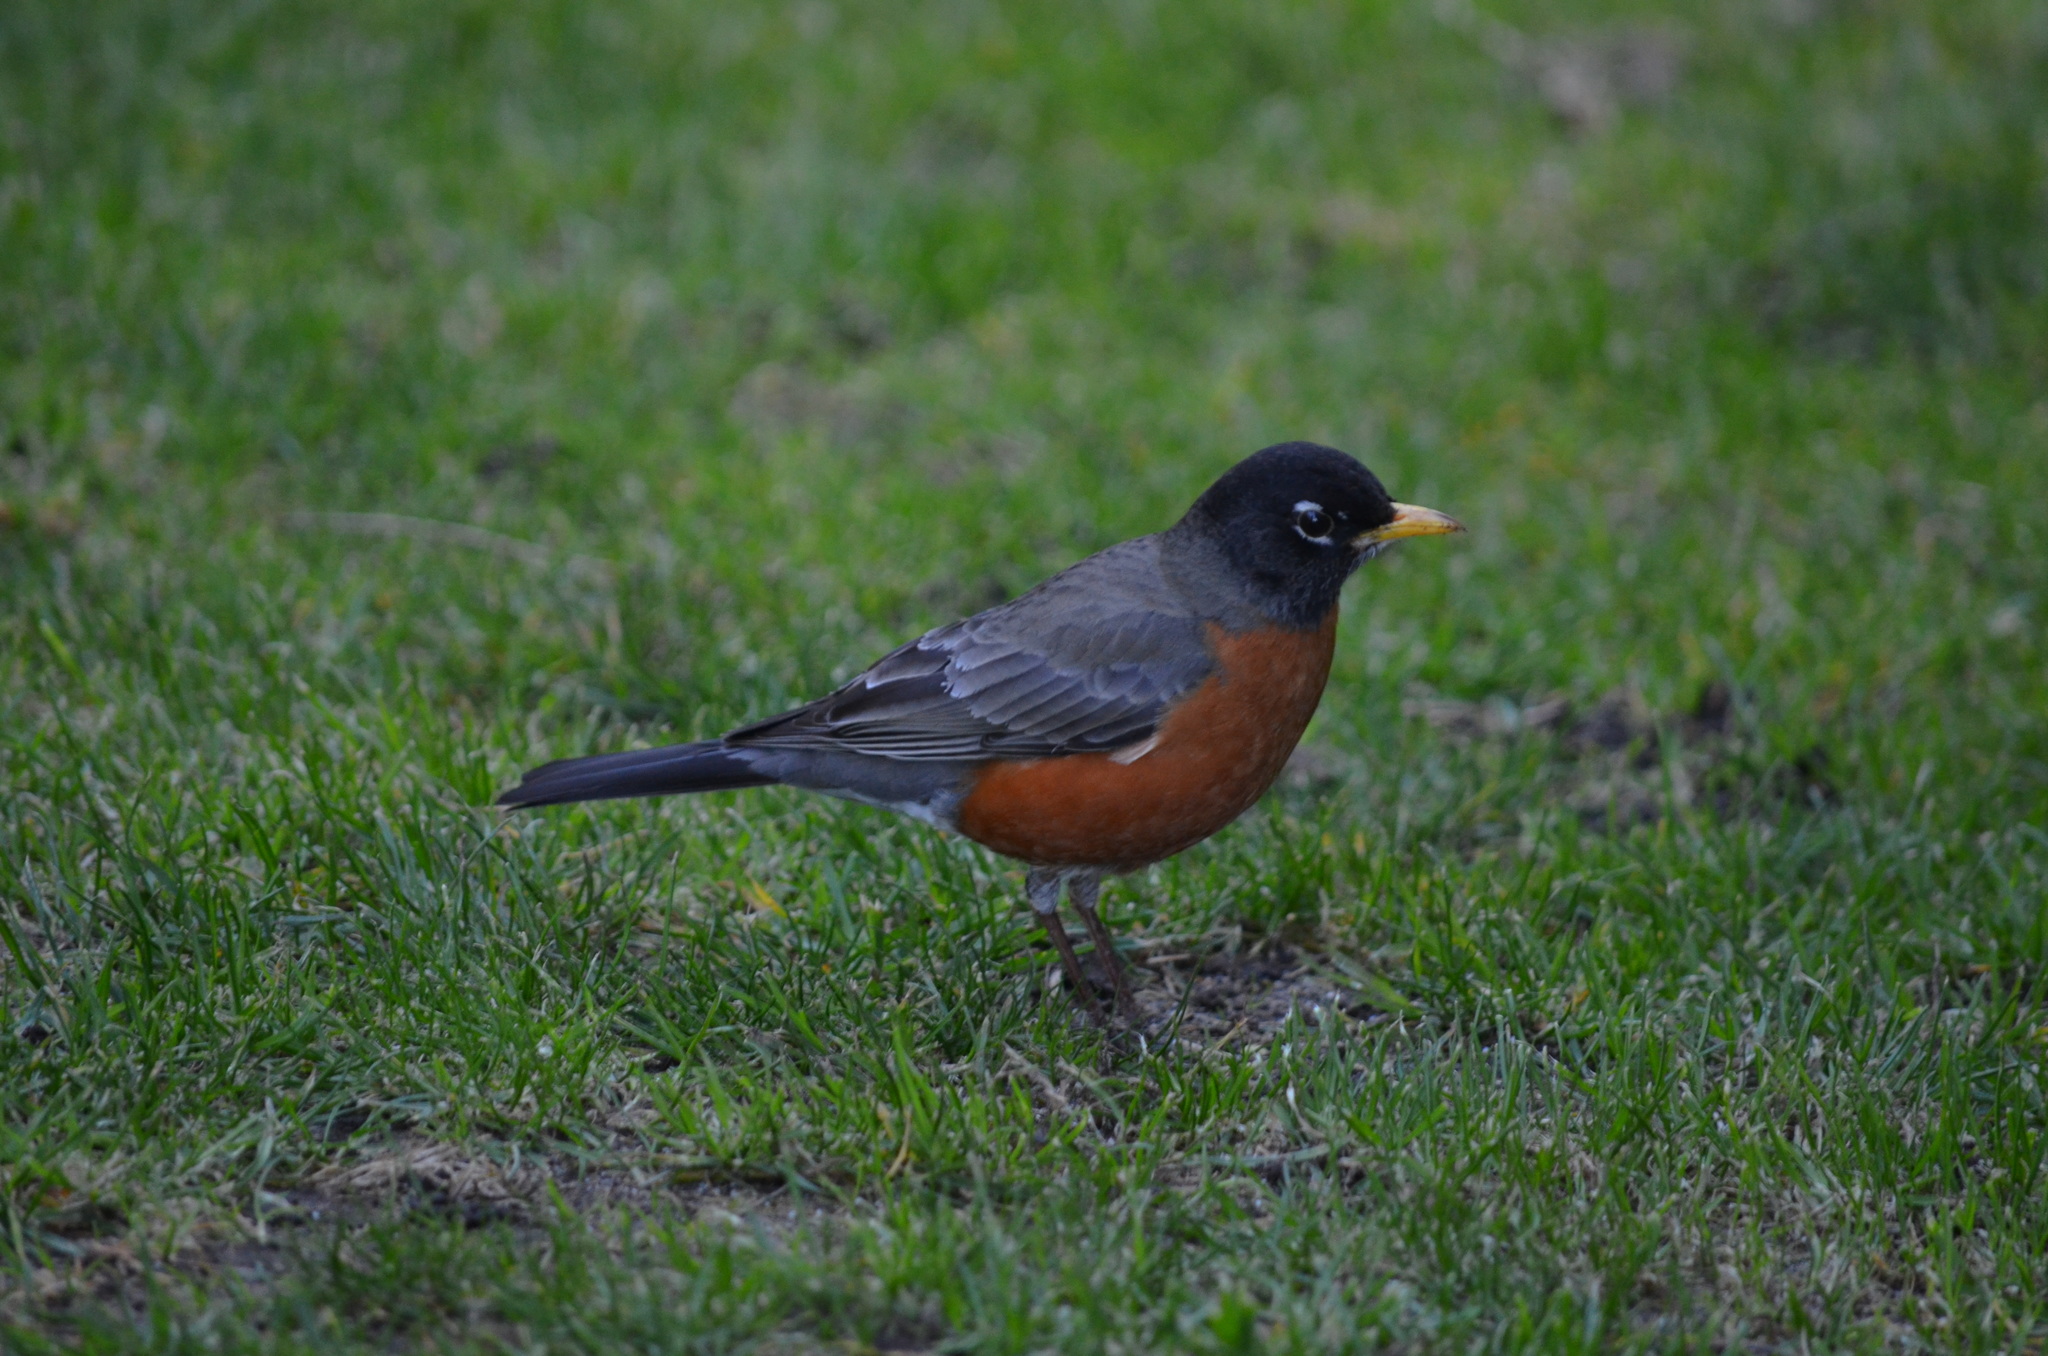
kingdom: Animalia
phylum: Chordata
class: Aves
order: Passeriformes
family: Turdidae
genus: Turdus
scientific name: Turdus migratorius
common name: American robin
